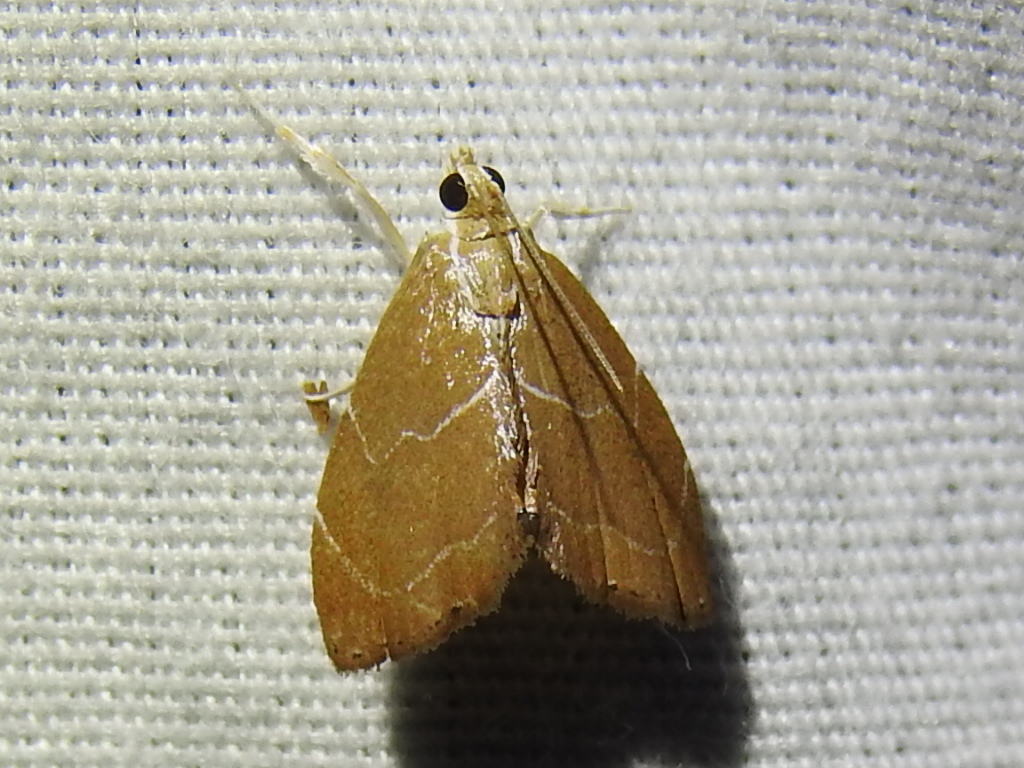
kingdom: Animalia
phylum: Arthropoda
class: Insecta
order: Lepidoptera
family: Crambidae
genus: Glaphyria
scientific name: Glaphyria peremptalis
